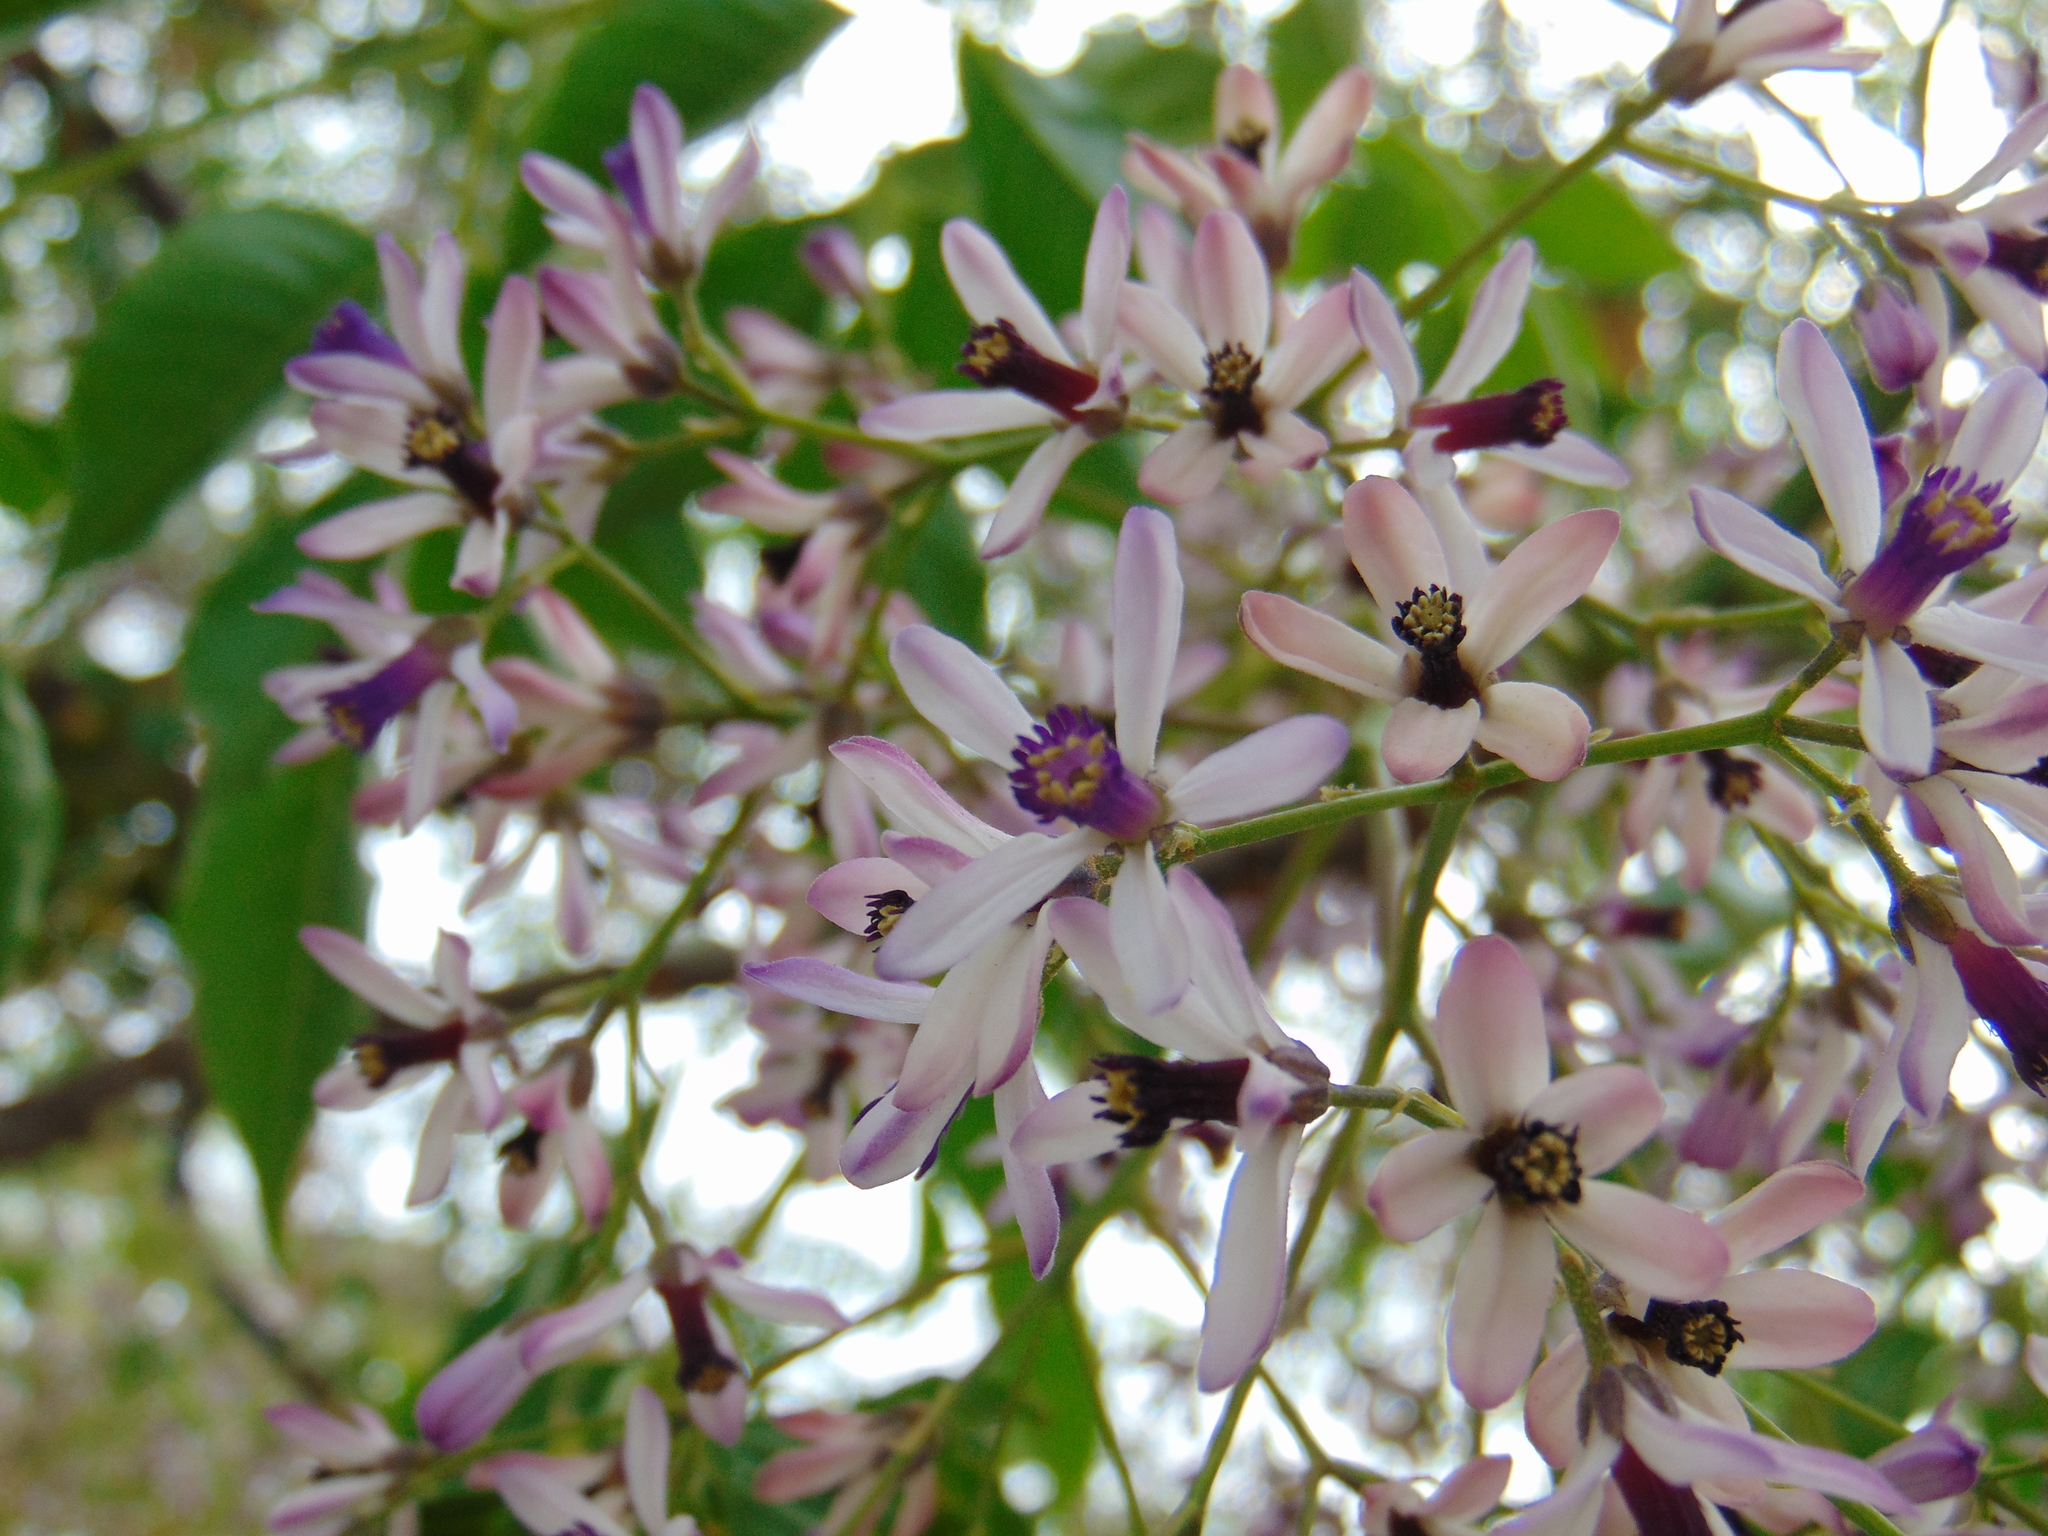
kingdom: Plantae
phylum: Tracheophyta
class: Magnoliopsida
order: Sapindales
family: Meliaceae
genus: Melia
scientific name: Melia azedarach
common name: Chinaberrytree
